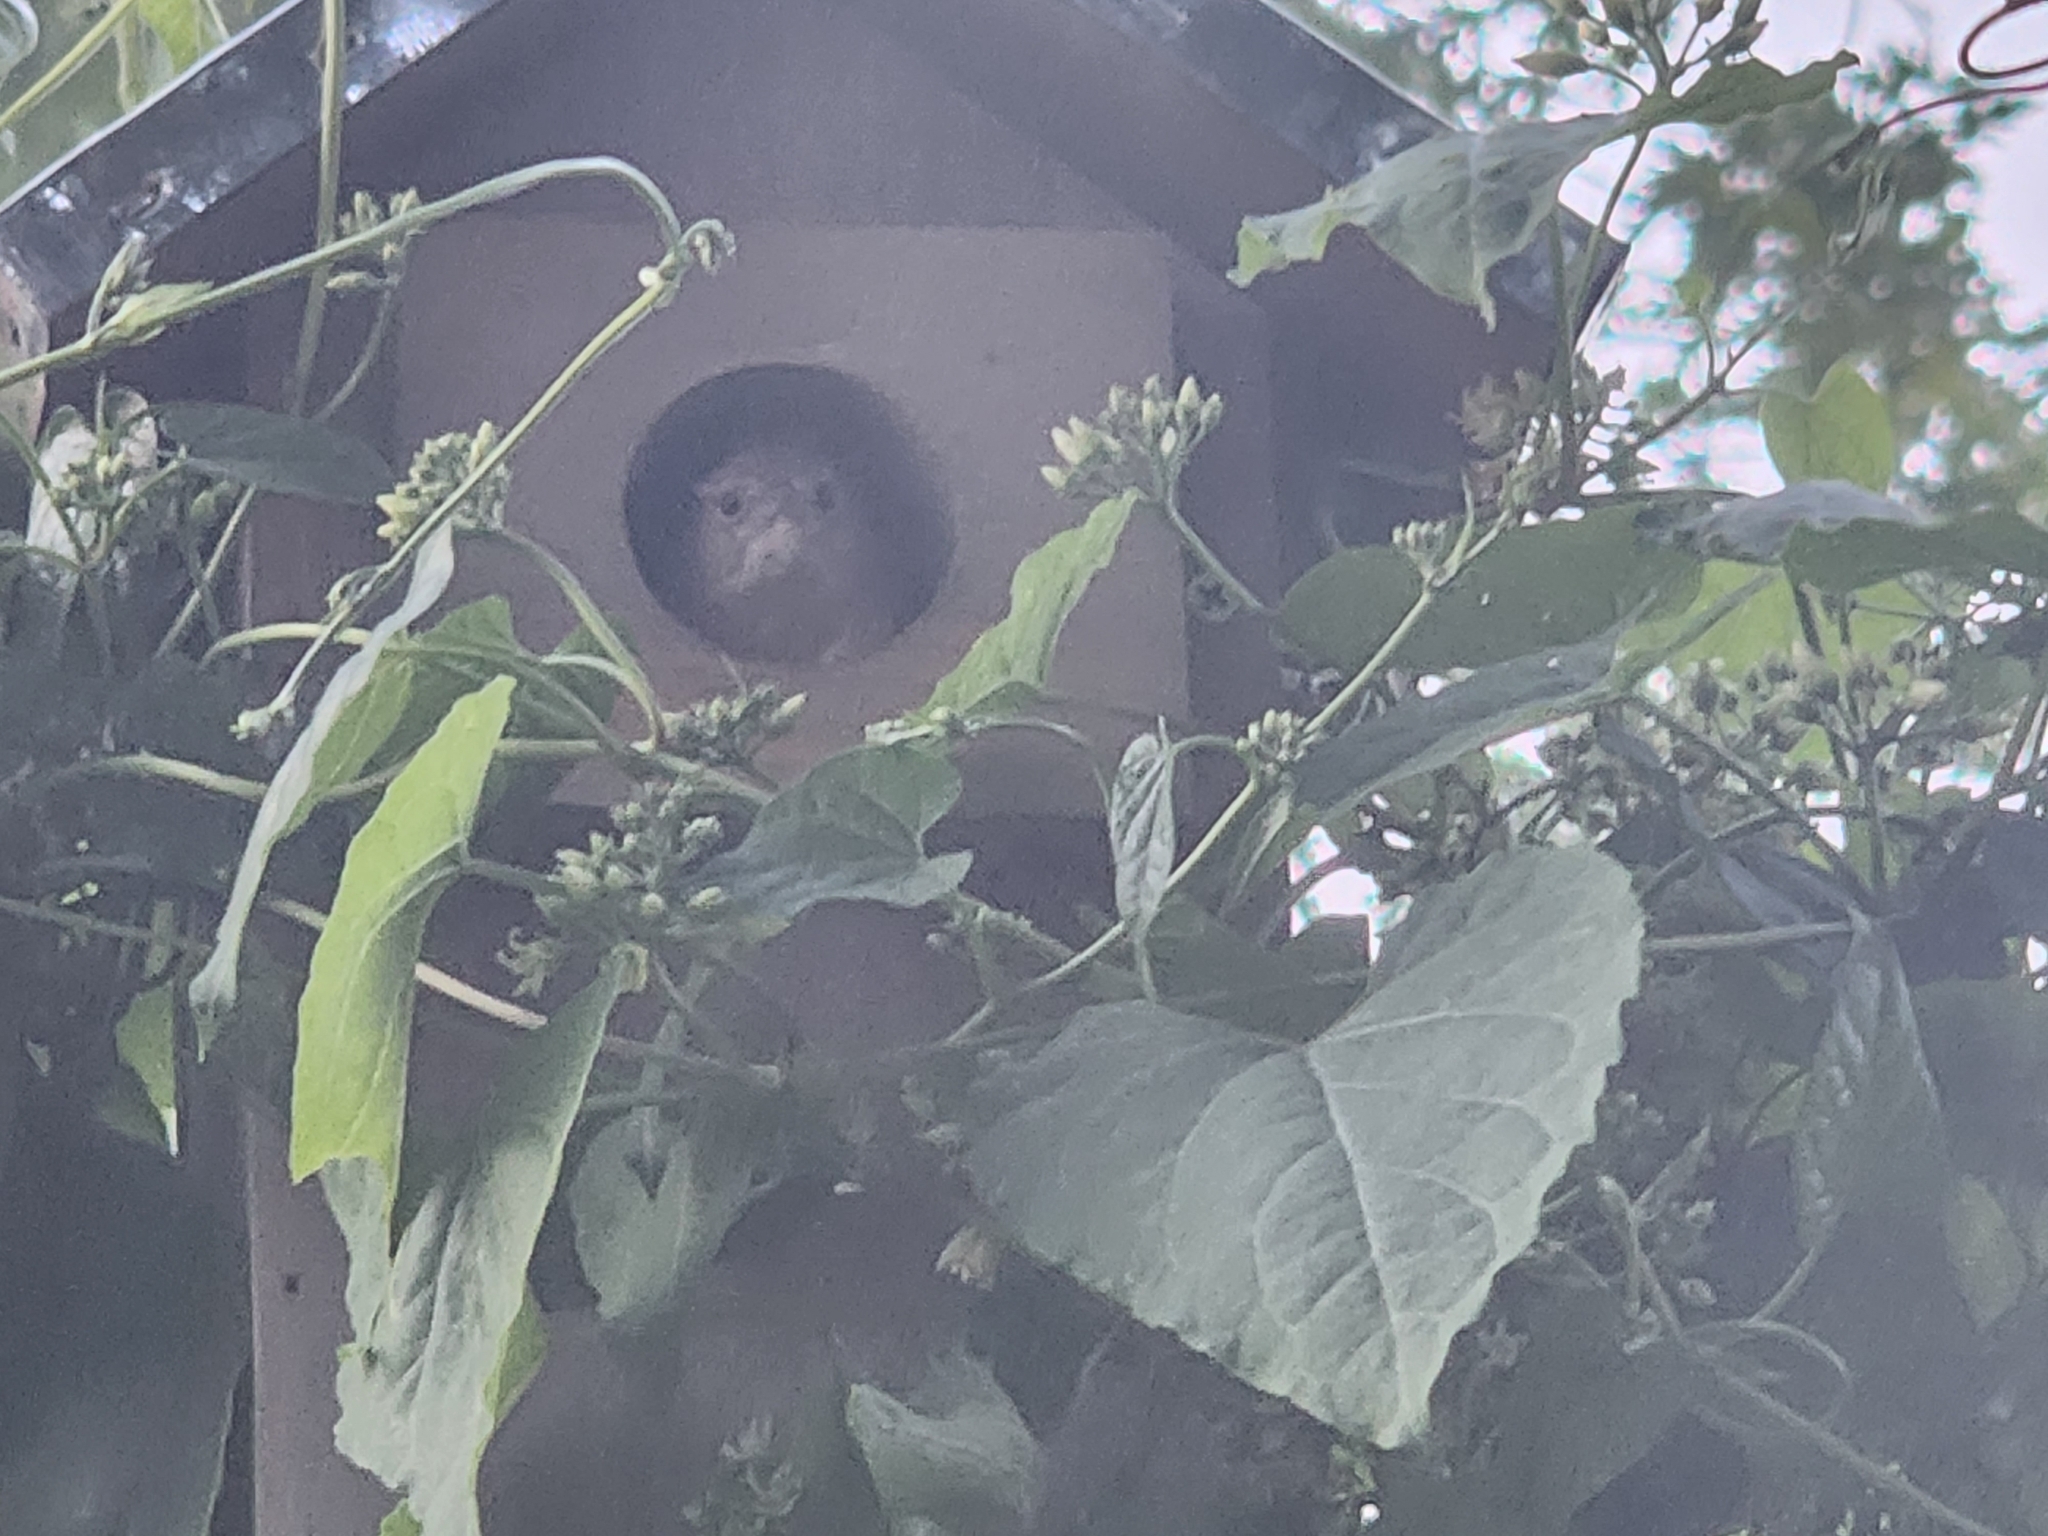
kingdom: Animalia
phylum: Chordata
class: Aves
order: Passeriformes
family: Troglodytidae
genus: Troglodytes
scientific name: Troglodytes aedon
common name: House wren
